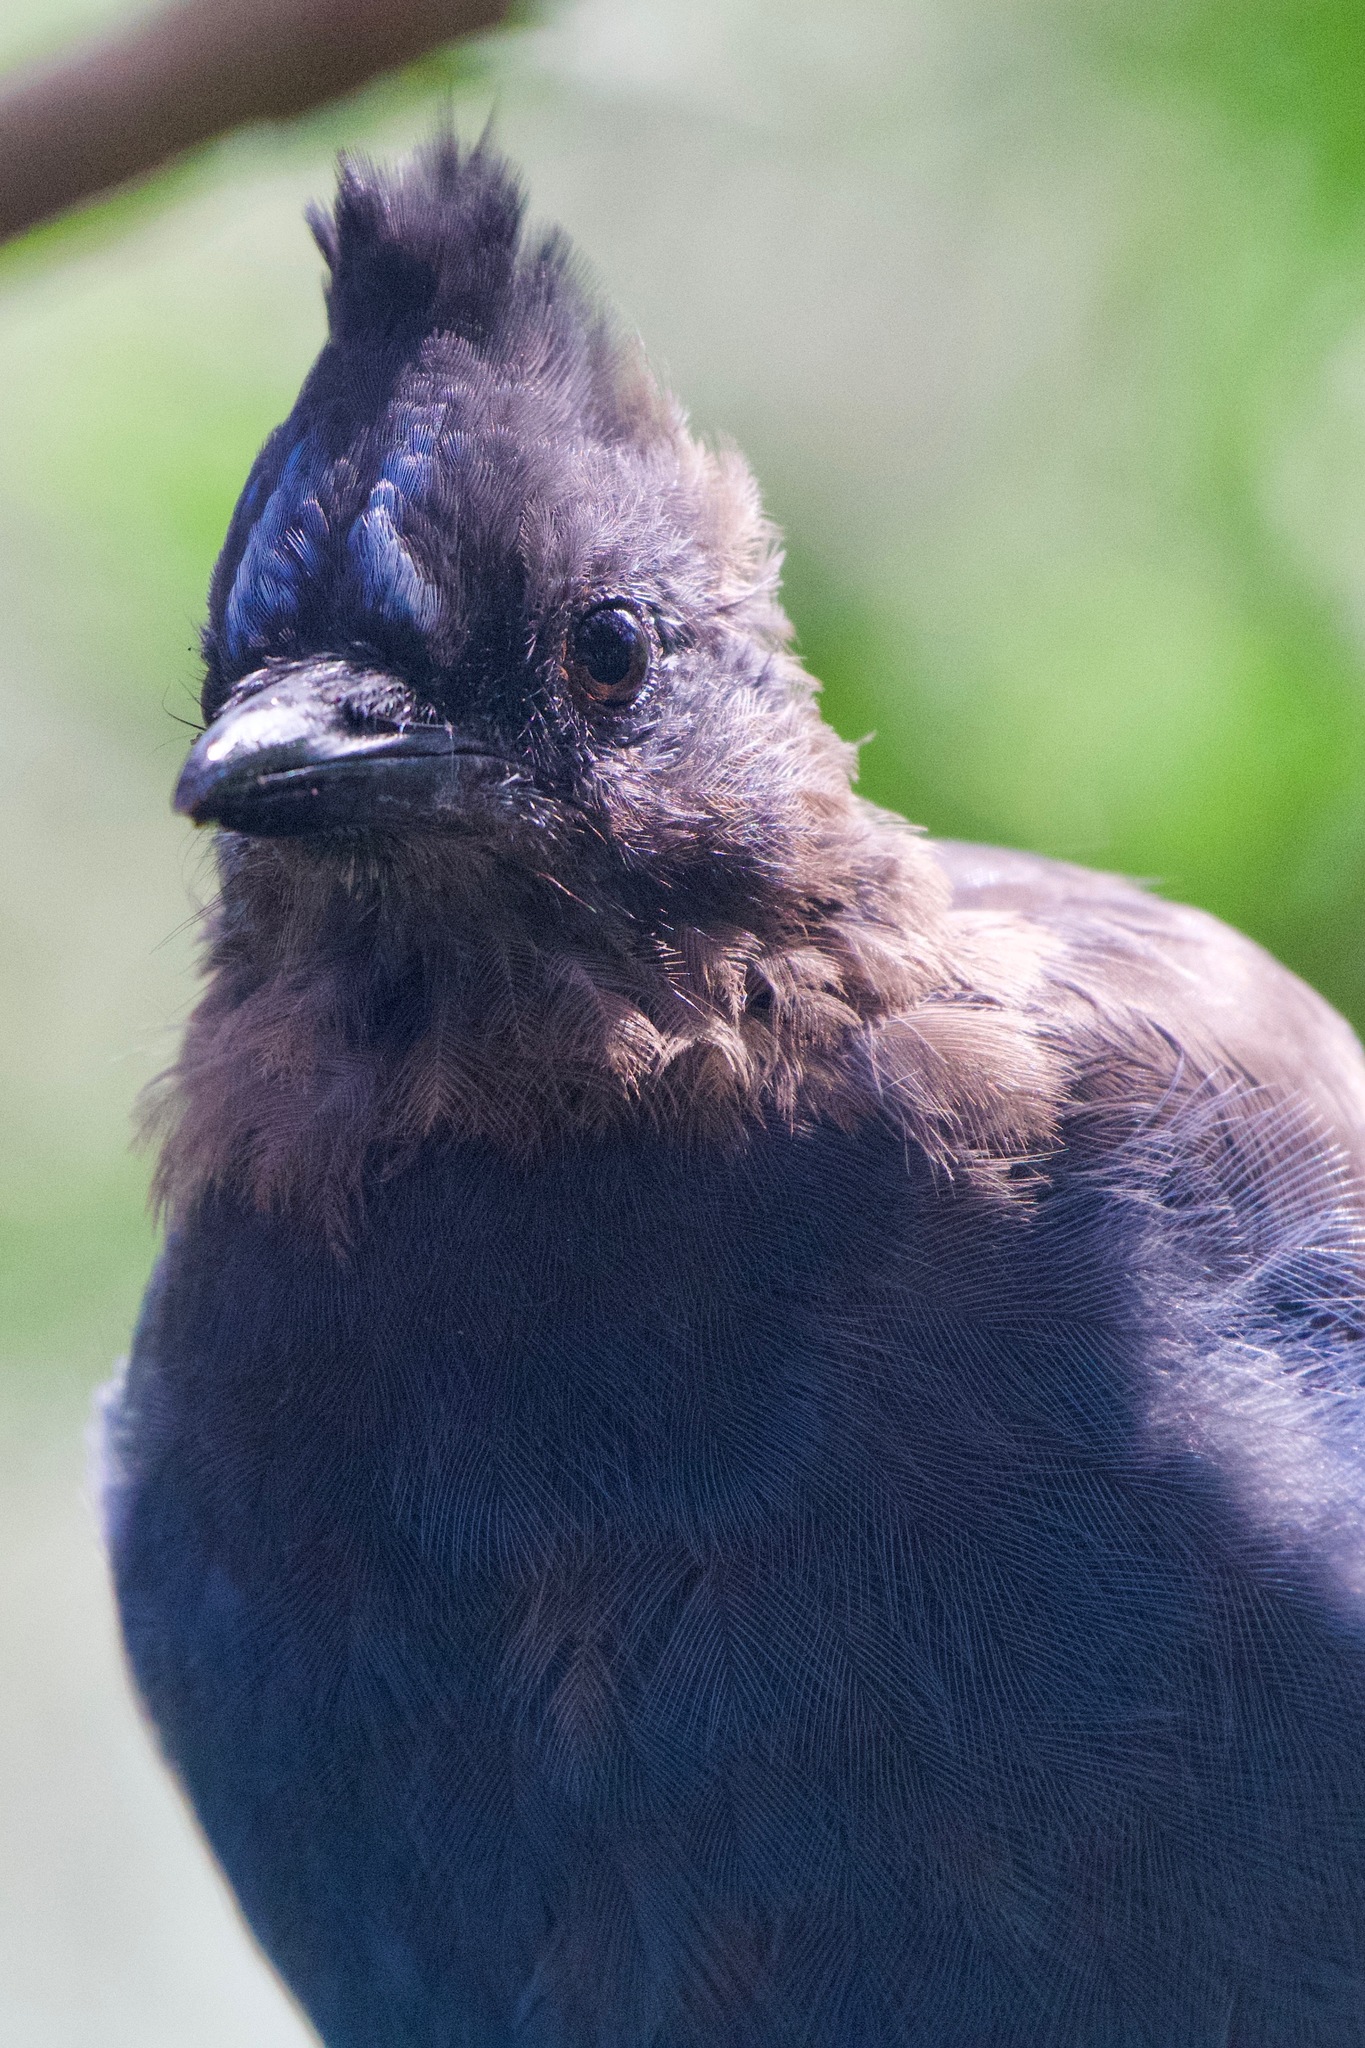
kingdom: Animalia
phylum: Chordata
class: Aves
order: Passeriformes
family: Corvidae
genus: Cyanocitta
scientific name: Cyanocitta stelleri
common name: Steller's jay
